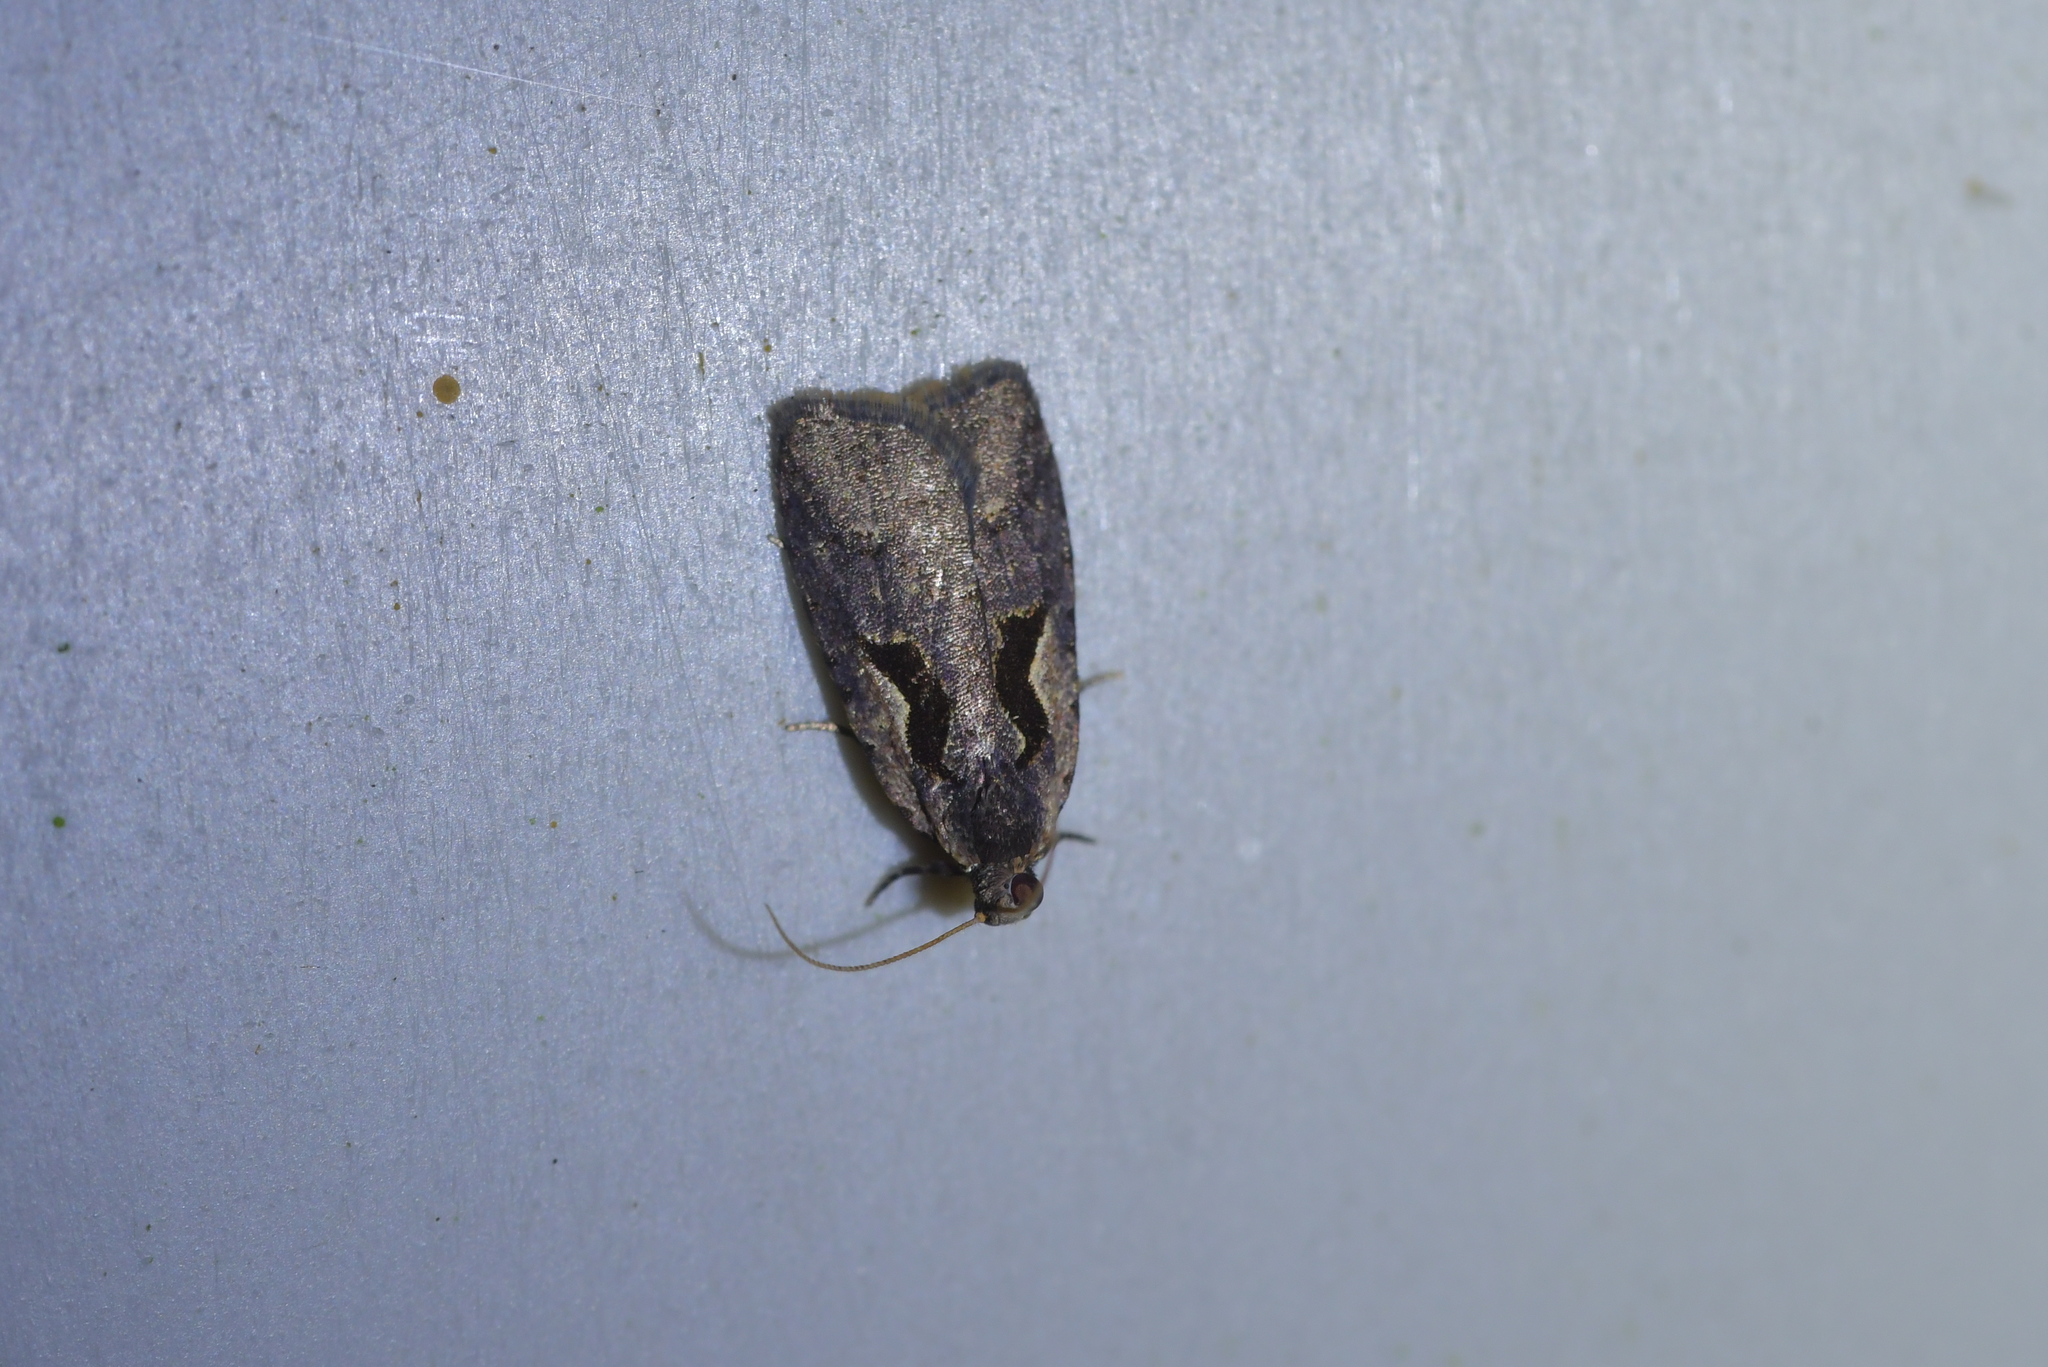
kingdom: Animalia
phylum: Arthropoda
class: Insecta
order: Lepidoptera
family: Tortricidae
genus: Cnephasia
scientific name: Cnephasia jactatana
